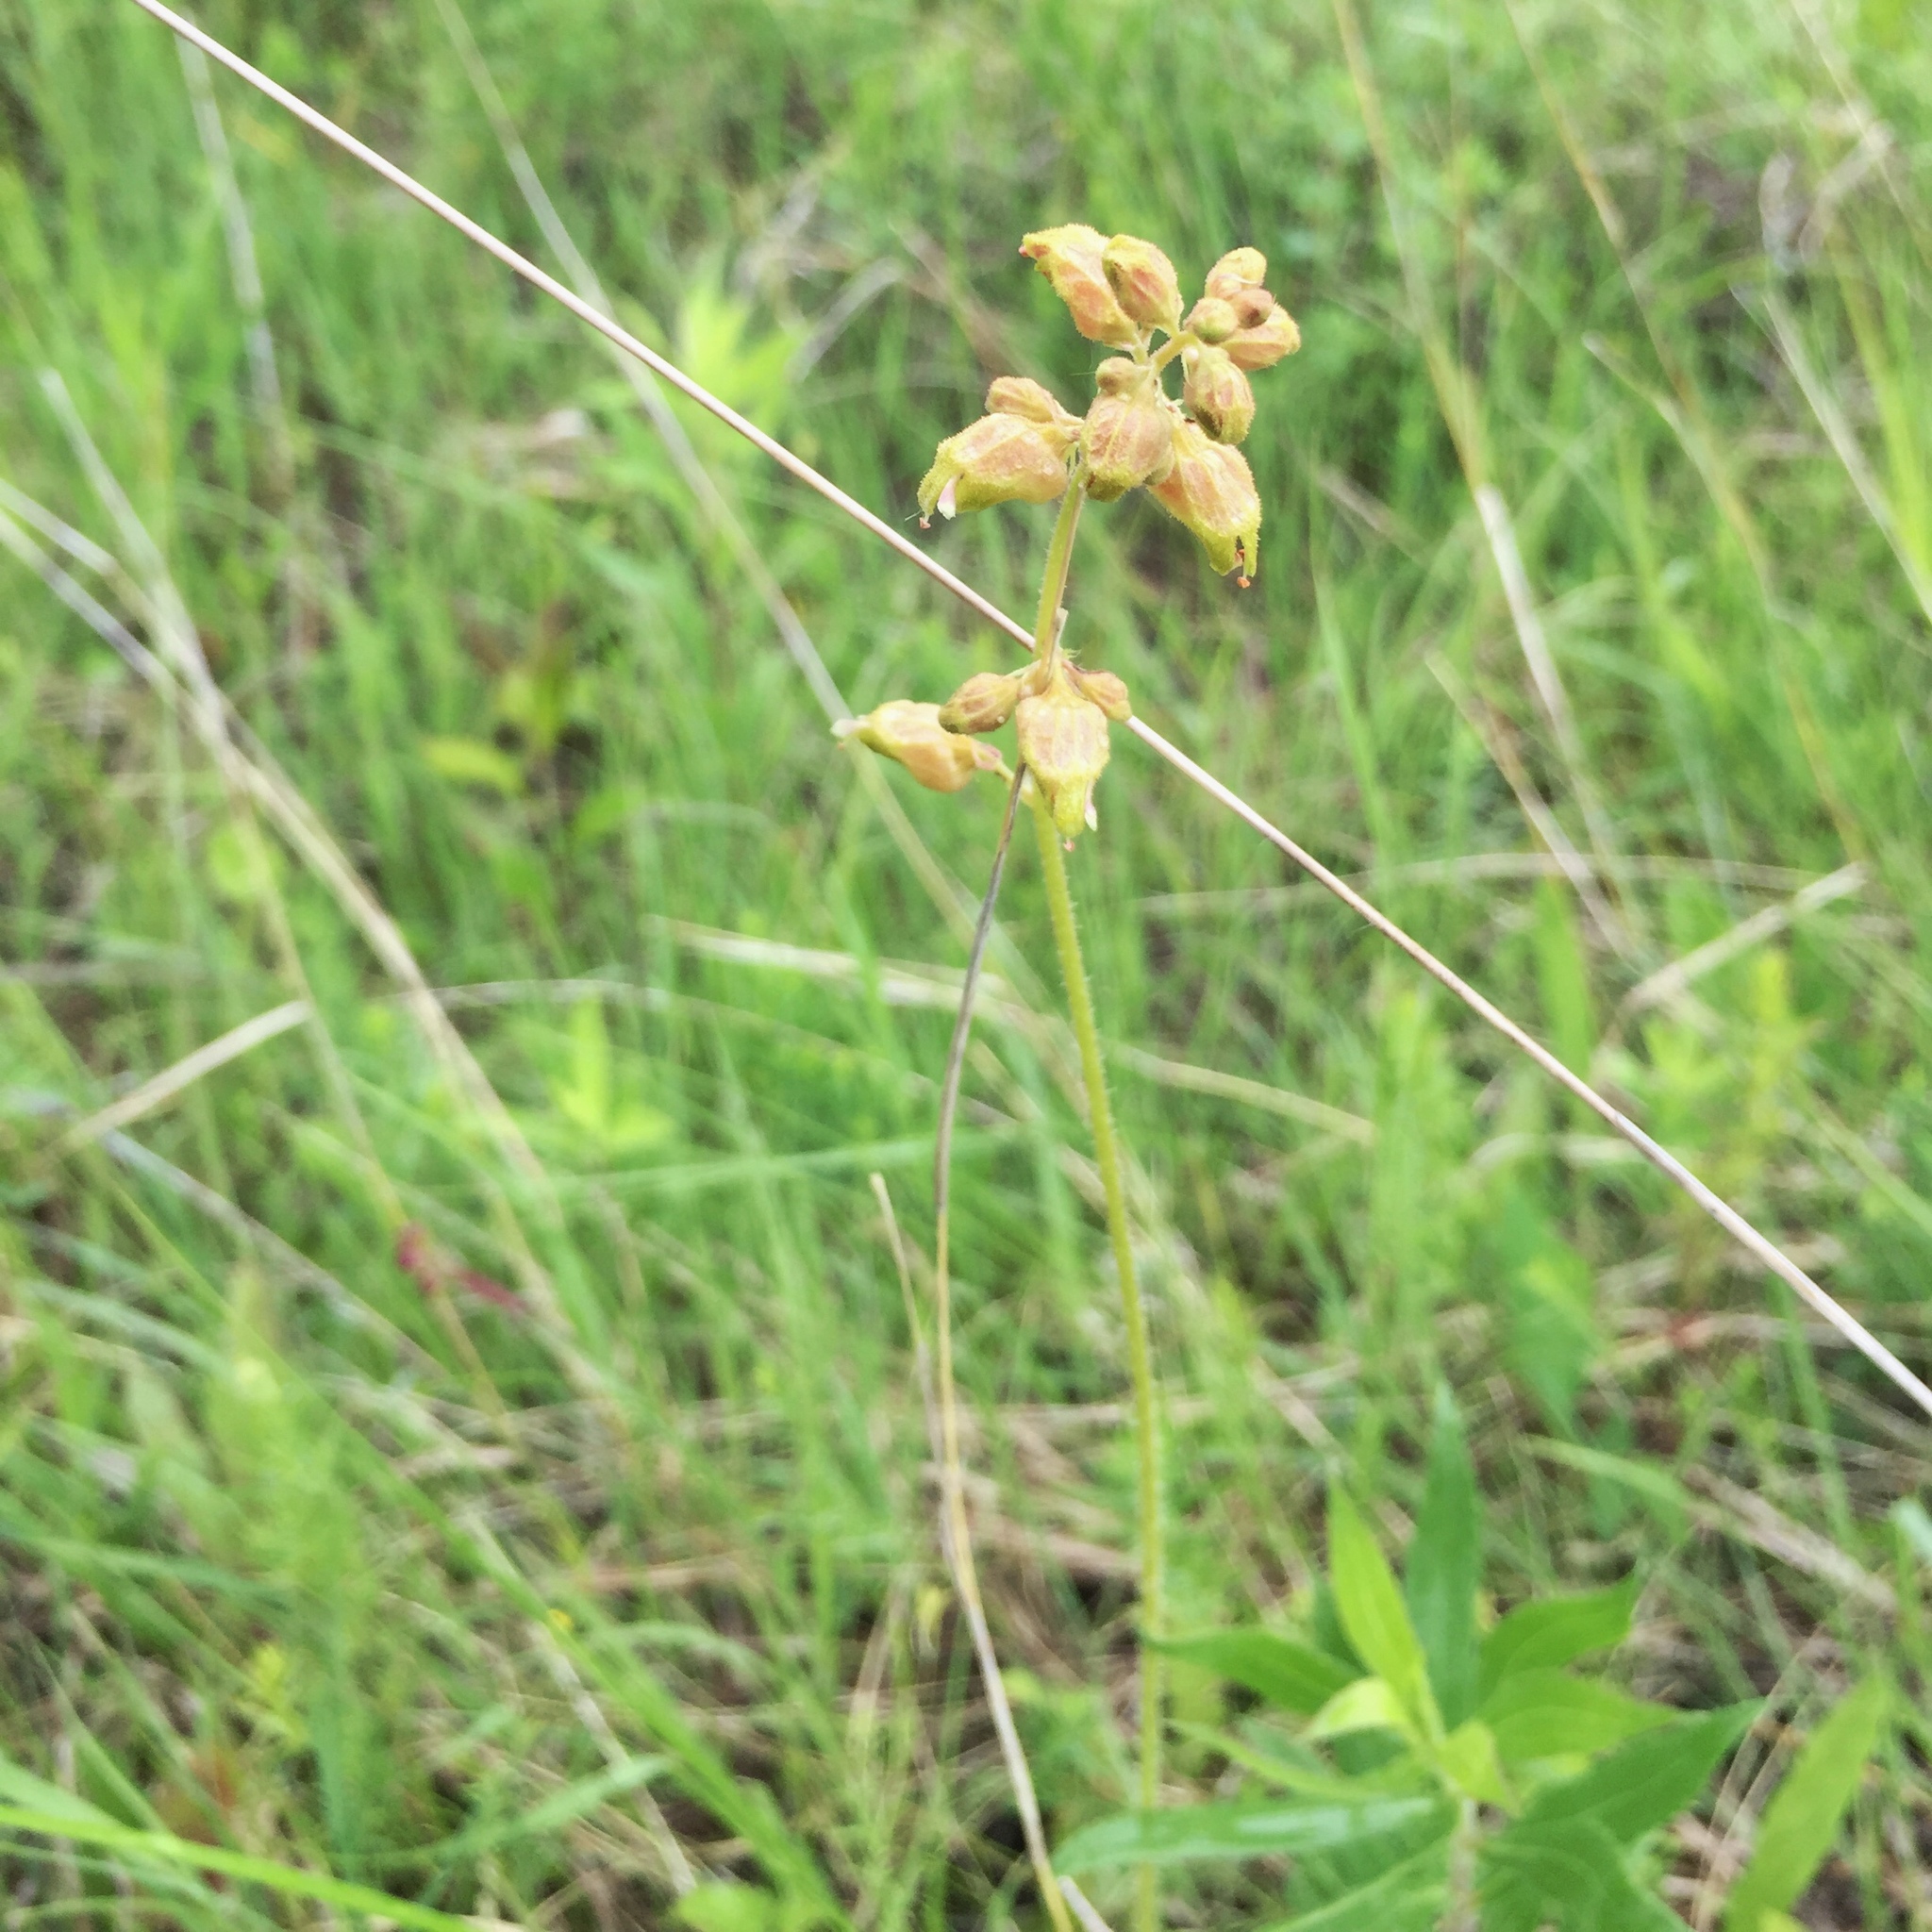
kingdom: Plantae
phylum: Tracheophyta
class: Magnoliopsida
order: Saxifragales
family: Saxifragaceae
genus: Heuchera
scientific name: Heuchera richardsonii
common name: Richardson's alumroot
